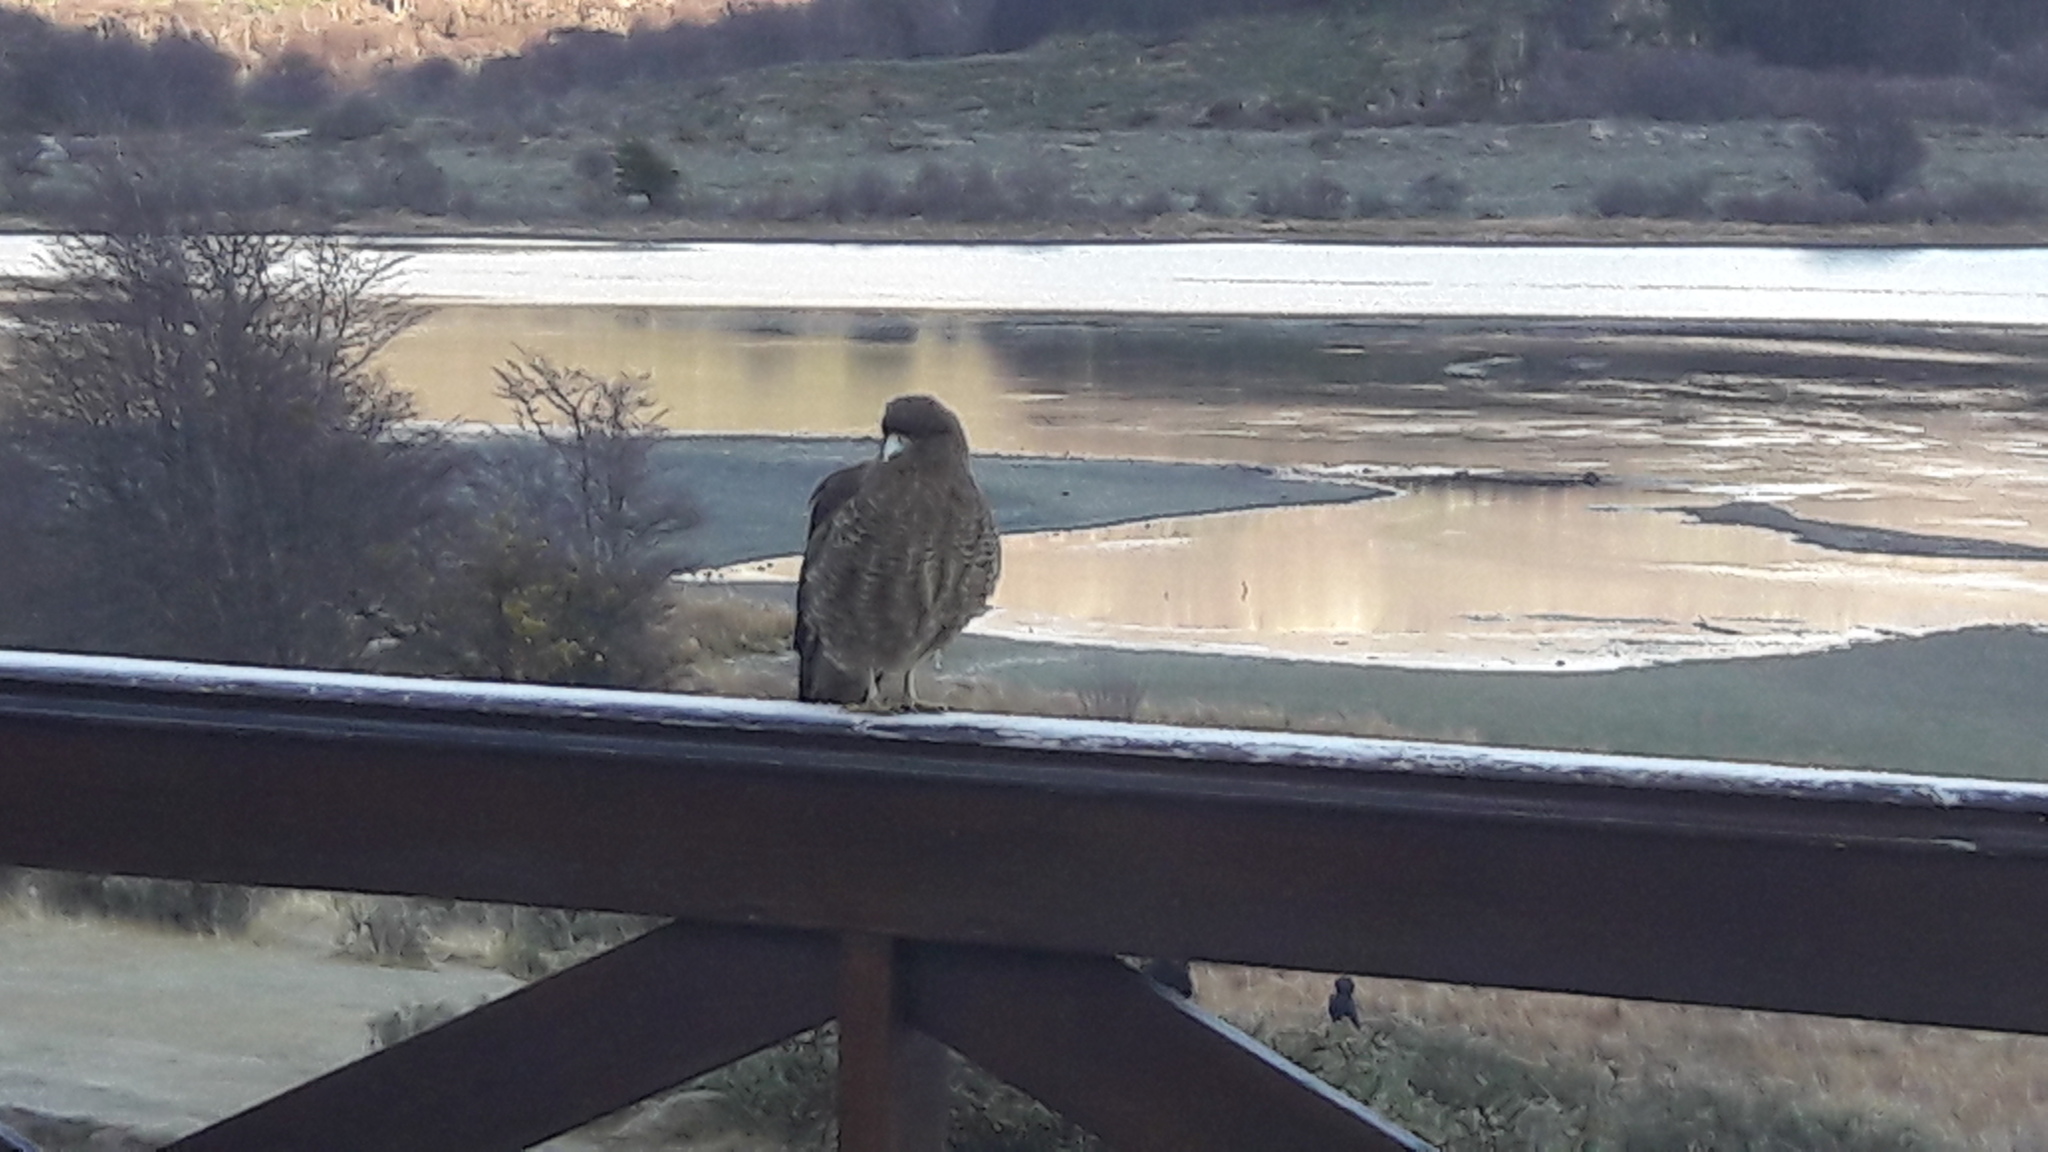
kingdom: Animalia
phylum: Chordata
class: Aves
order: Falconiformes
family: Falconidae
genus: Daptrius
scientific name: Daptrius
